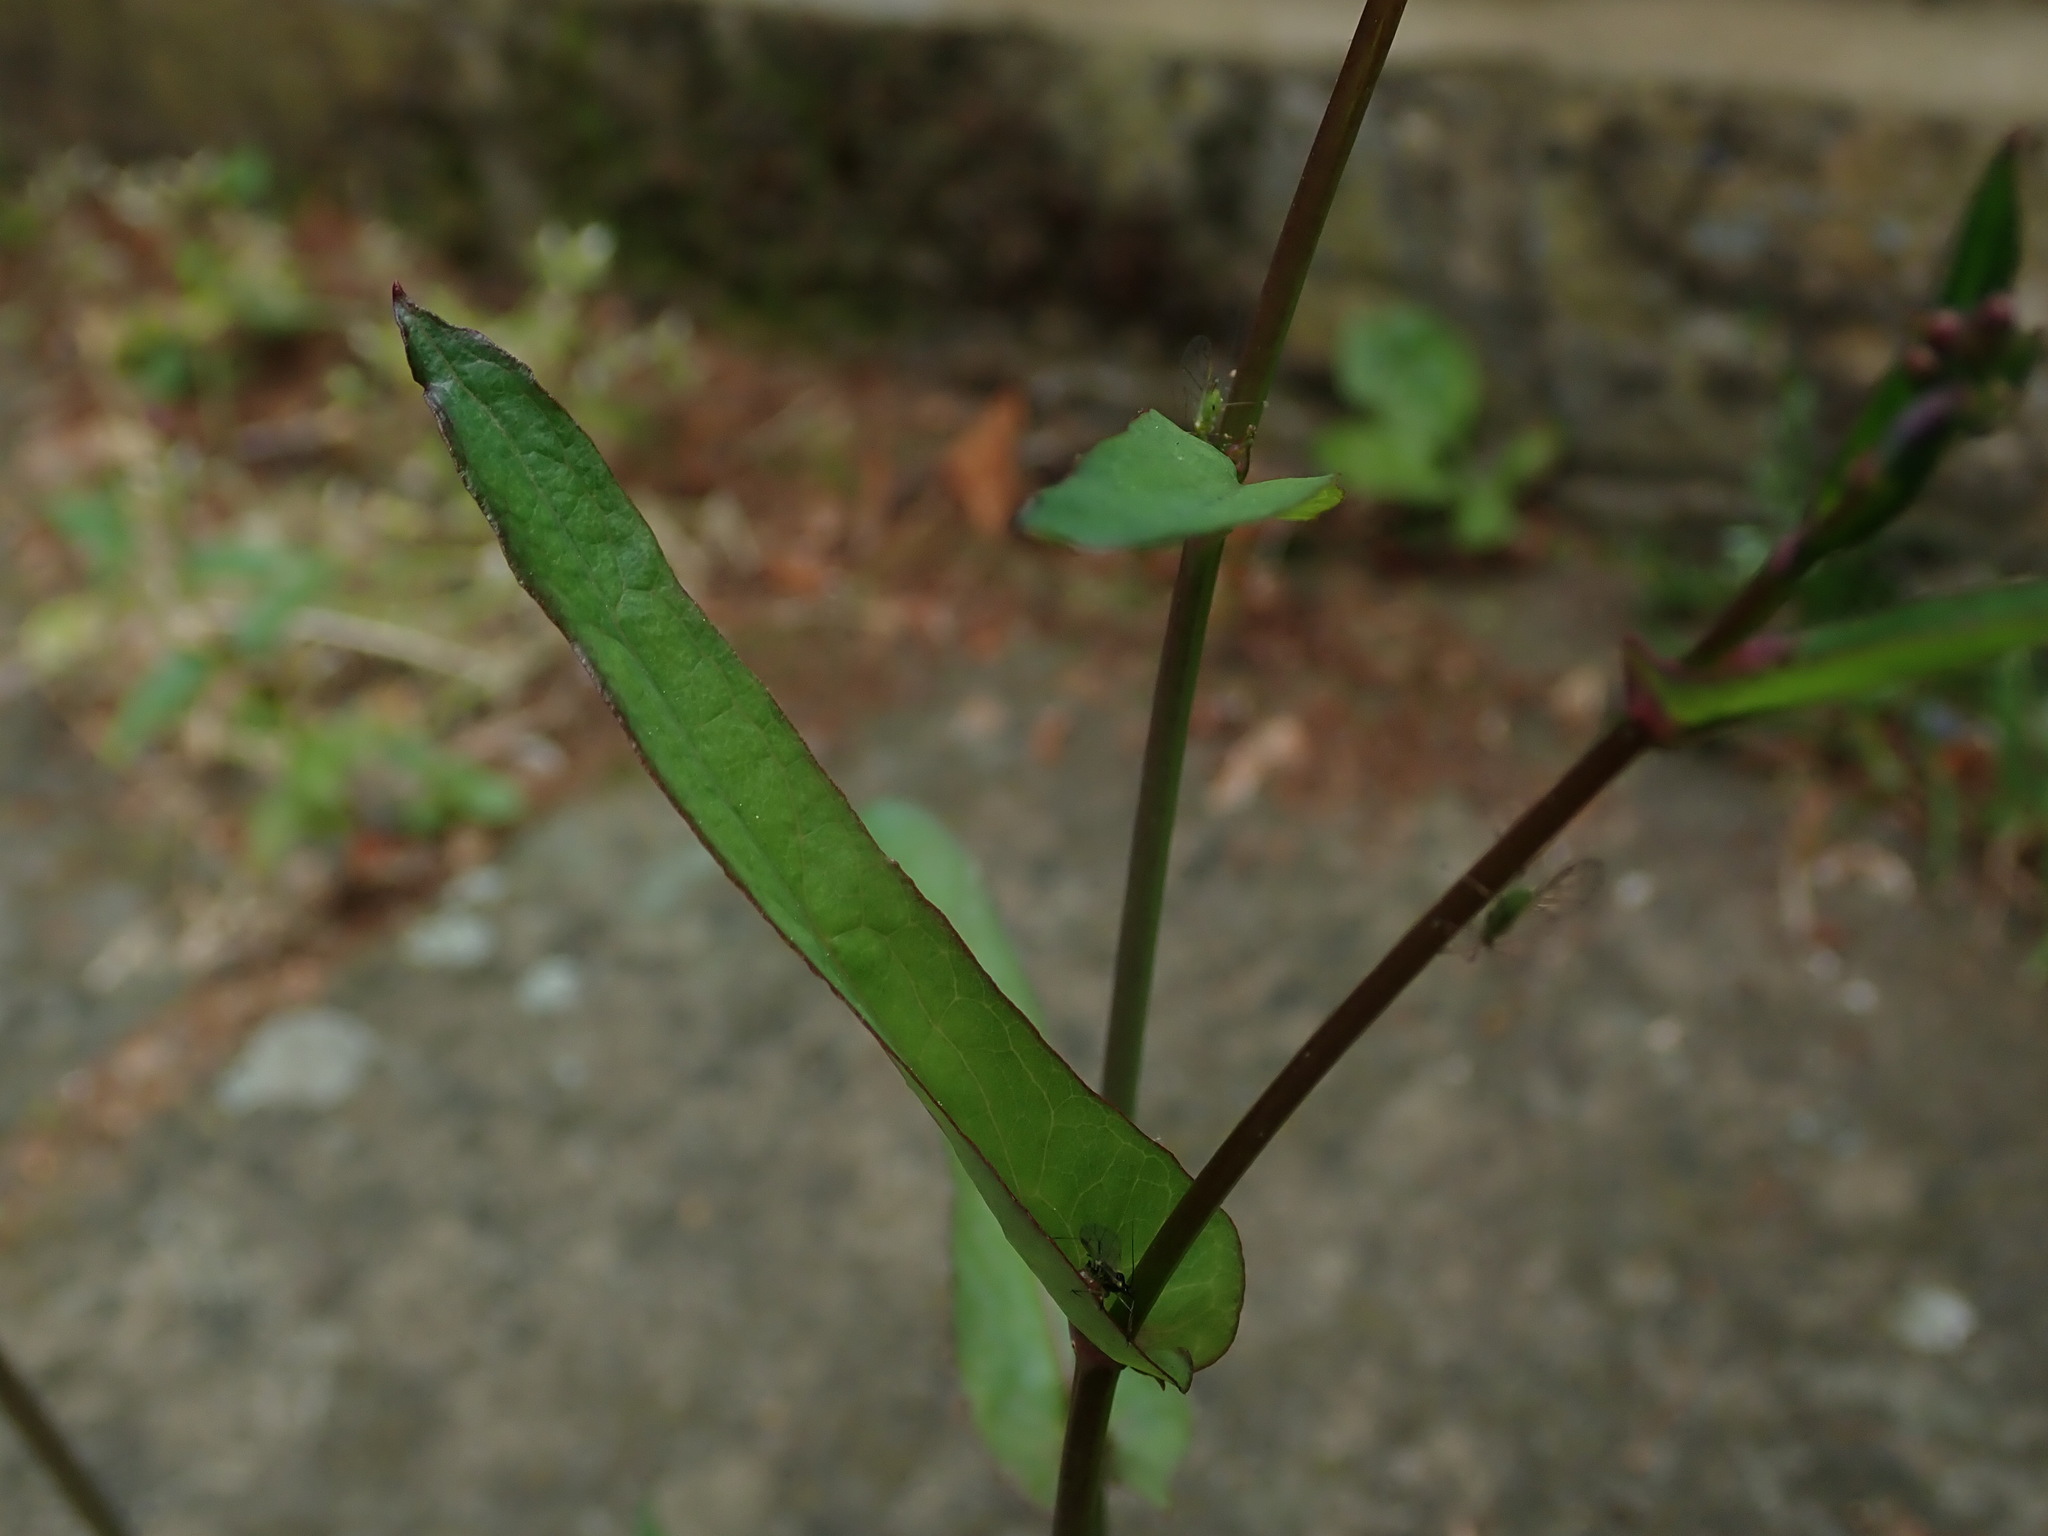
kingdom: Plantae
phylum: Tracheophyta
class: Magnoliopsida
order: Asterales
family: Asteraceae
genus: Mycelis
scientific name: Mycelis muralis
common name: Wall lettuce
